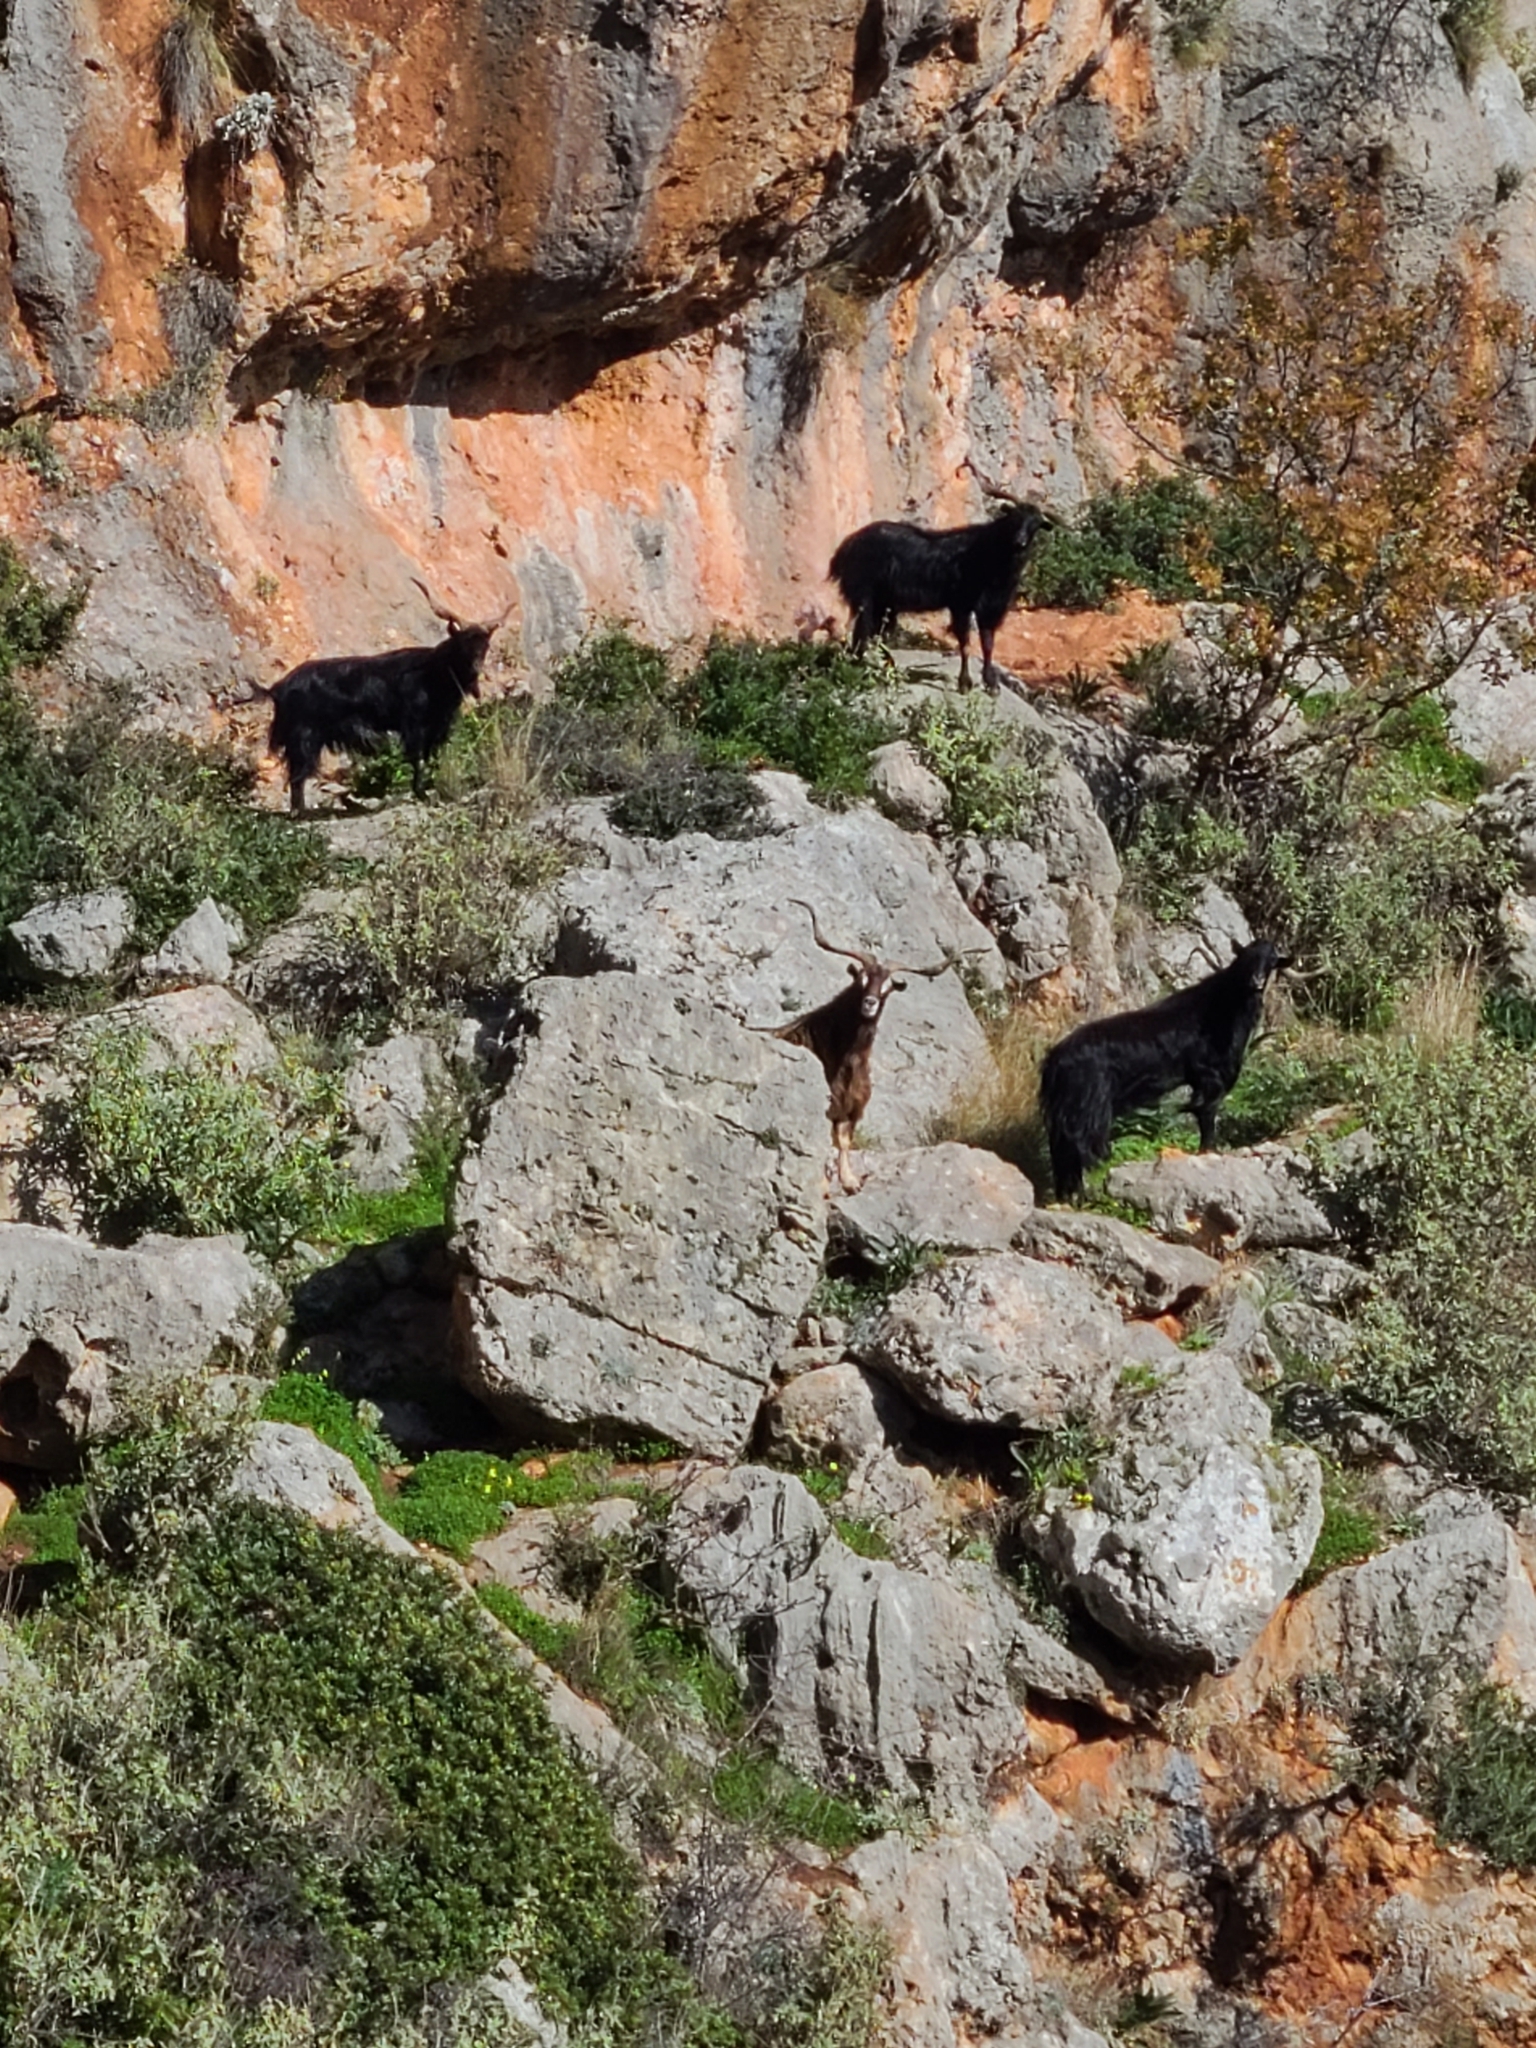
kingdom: Animalia
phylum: Chordata
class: Mammalia
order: Artiodactyla
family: Bovidae
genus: Capra
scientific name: Capra hircus
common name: Domestic goat
